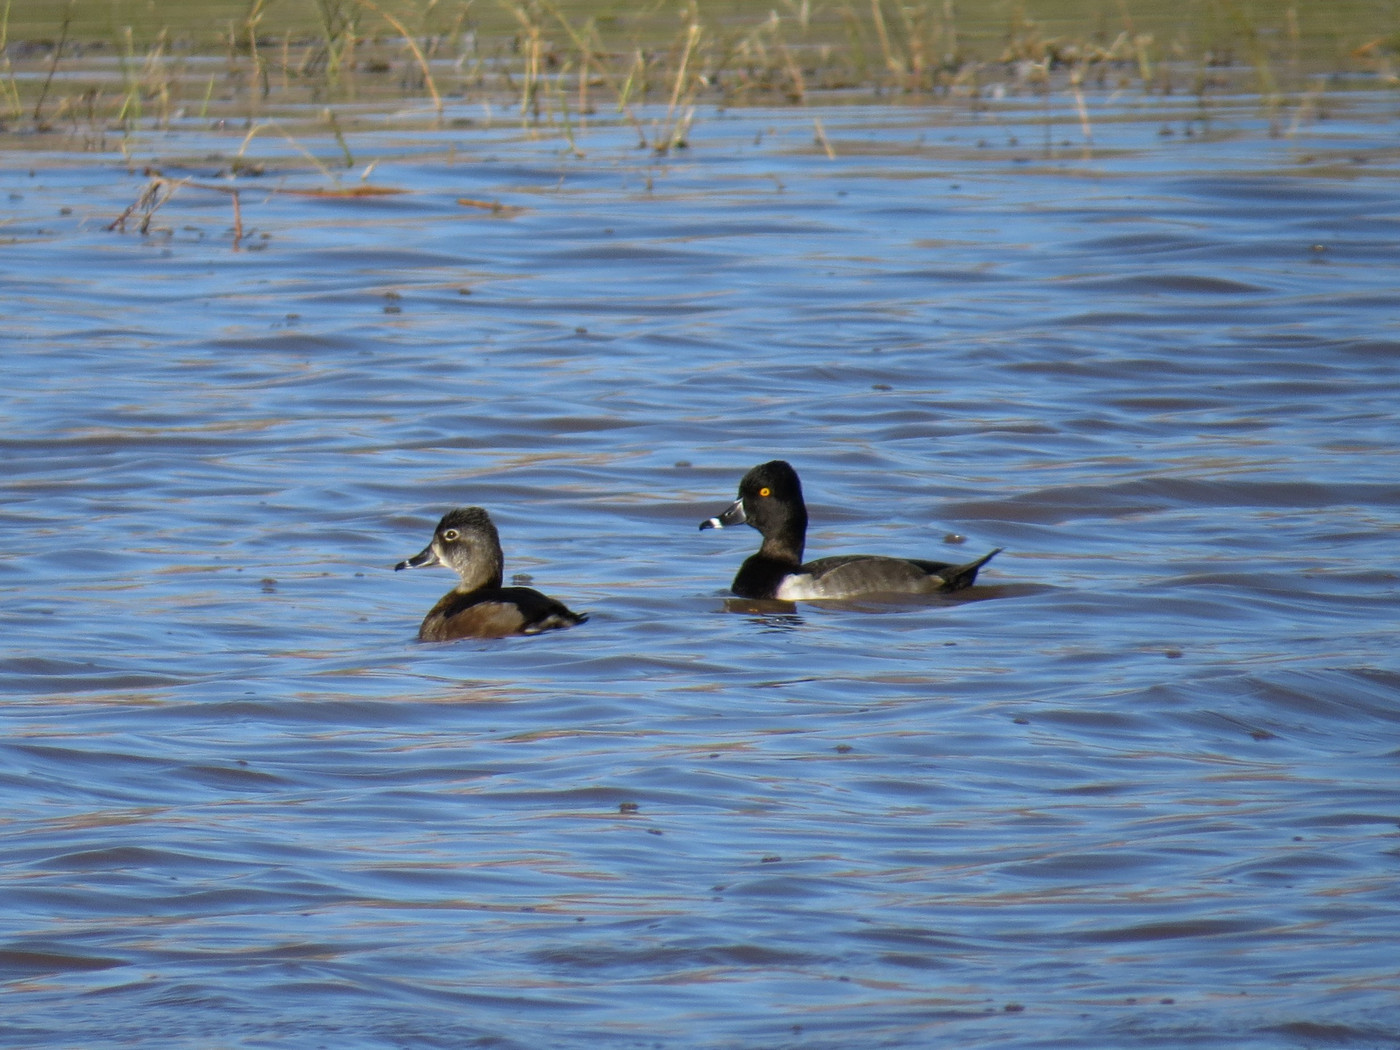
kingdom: Animalia
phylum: Chordata
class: Aves
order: Anseriformes
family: Anatidae
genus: Aythya
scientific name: Aythya collaris
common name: Ring-necked duck
